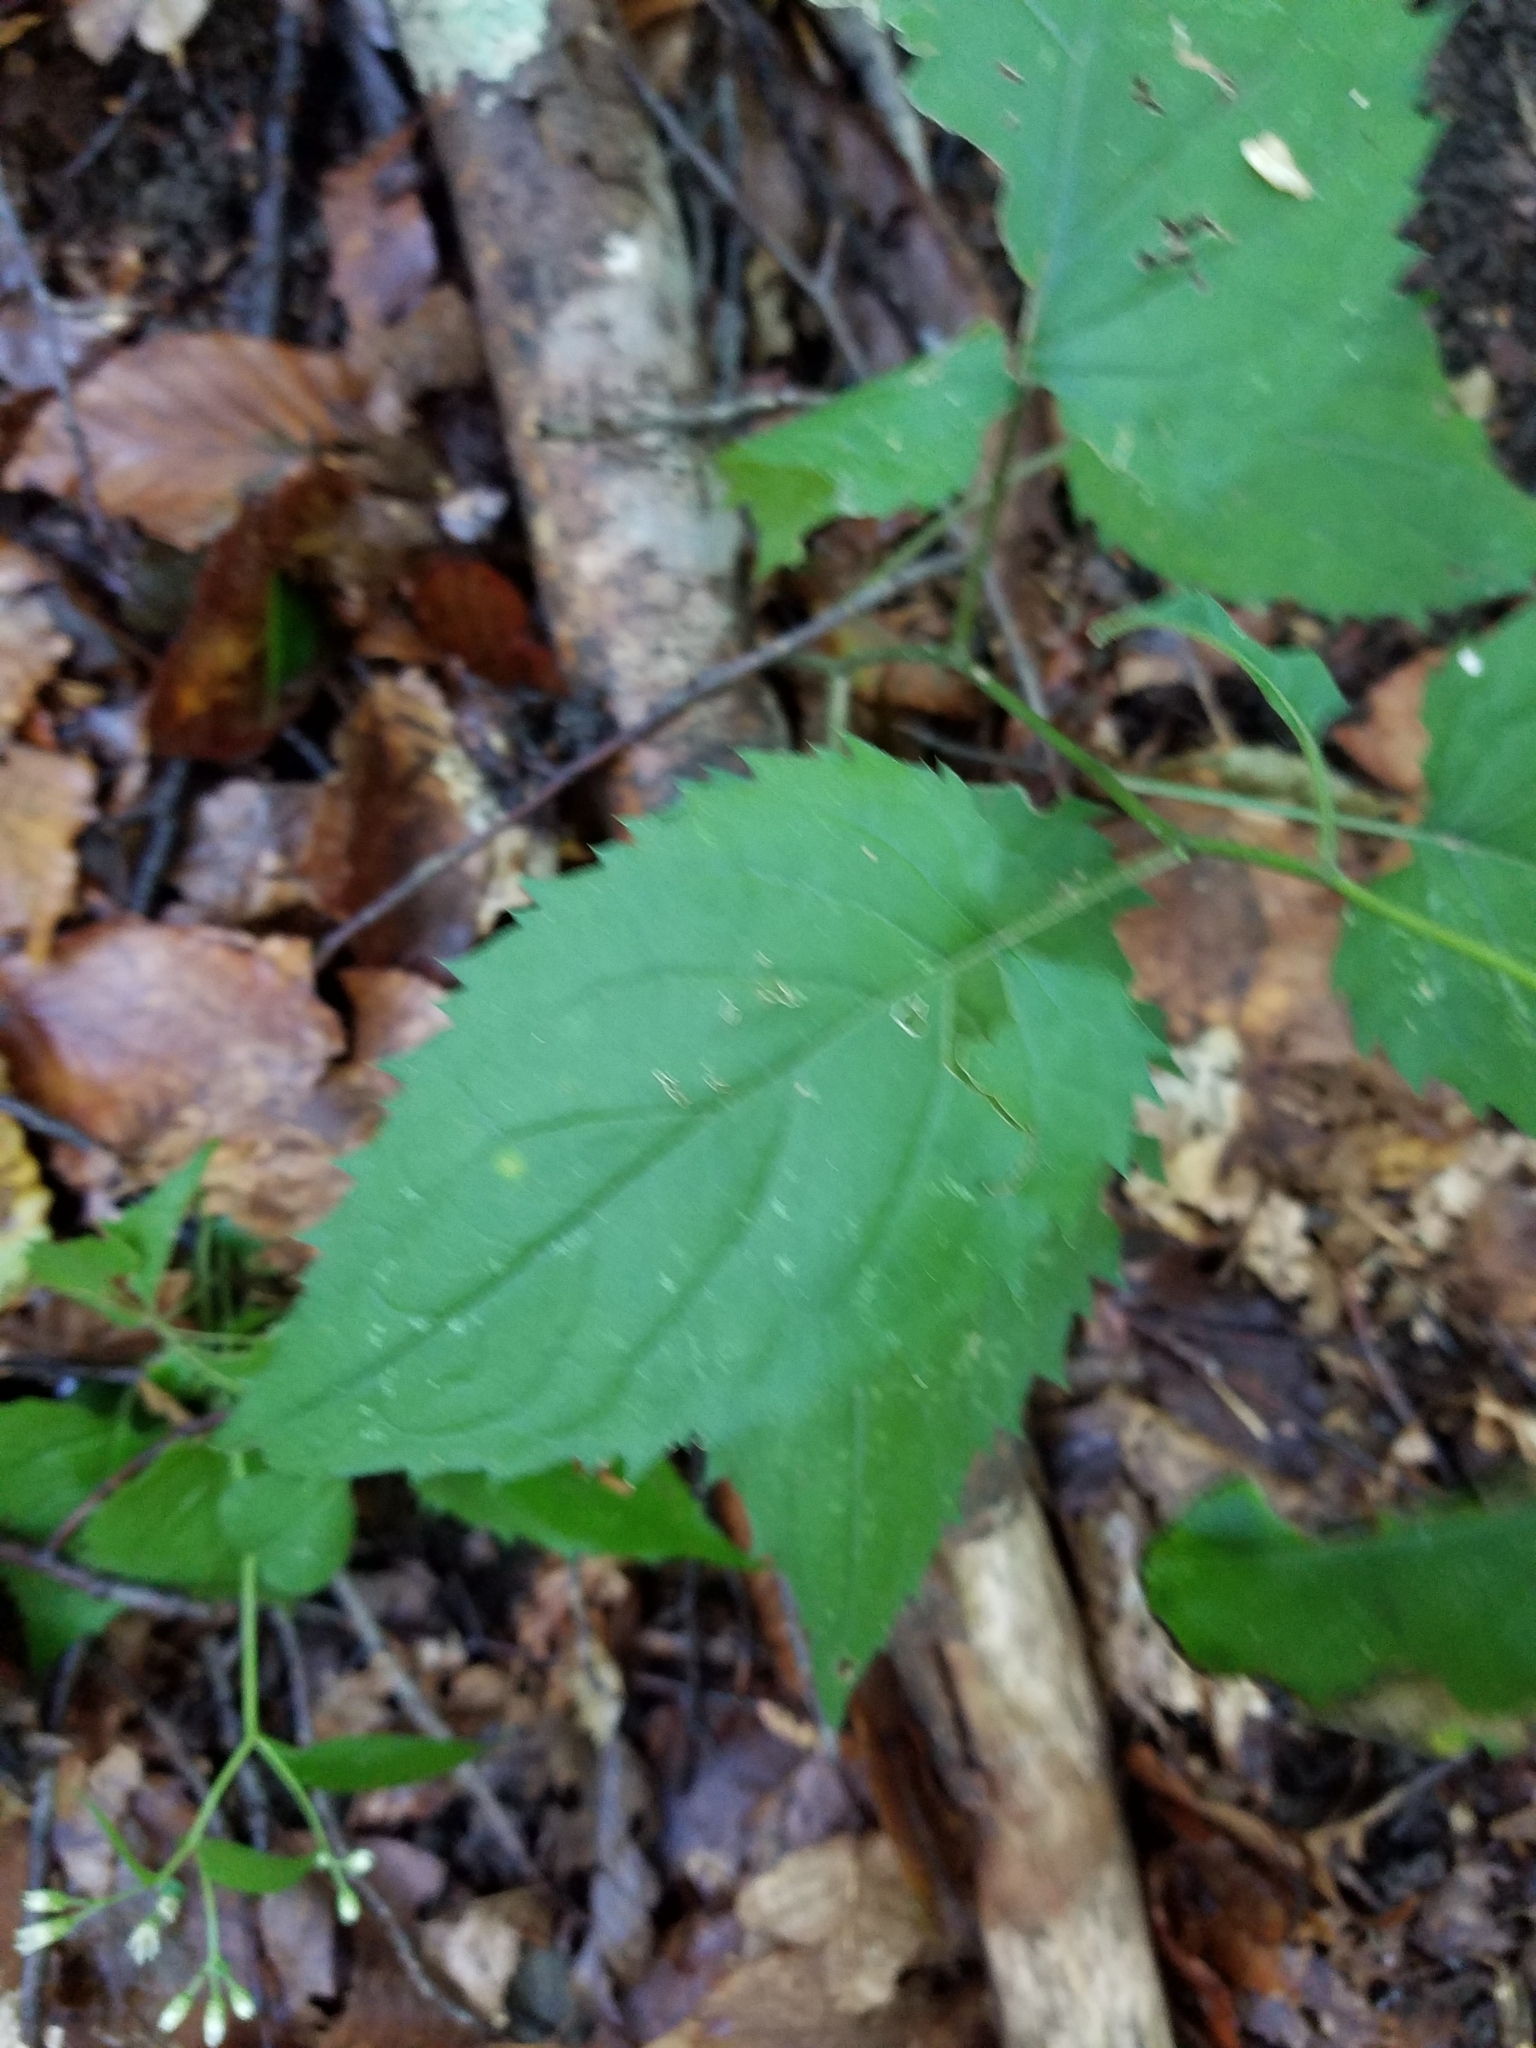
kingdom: Plantae
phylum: Tracheophyta
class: Magnoliopsida
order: Asterales
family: Asteraceae
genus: Eurybia
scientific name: Eurybia divaricata
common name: White wood aster
